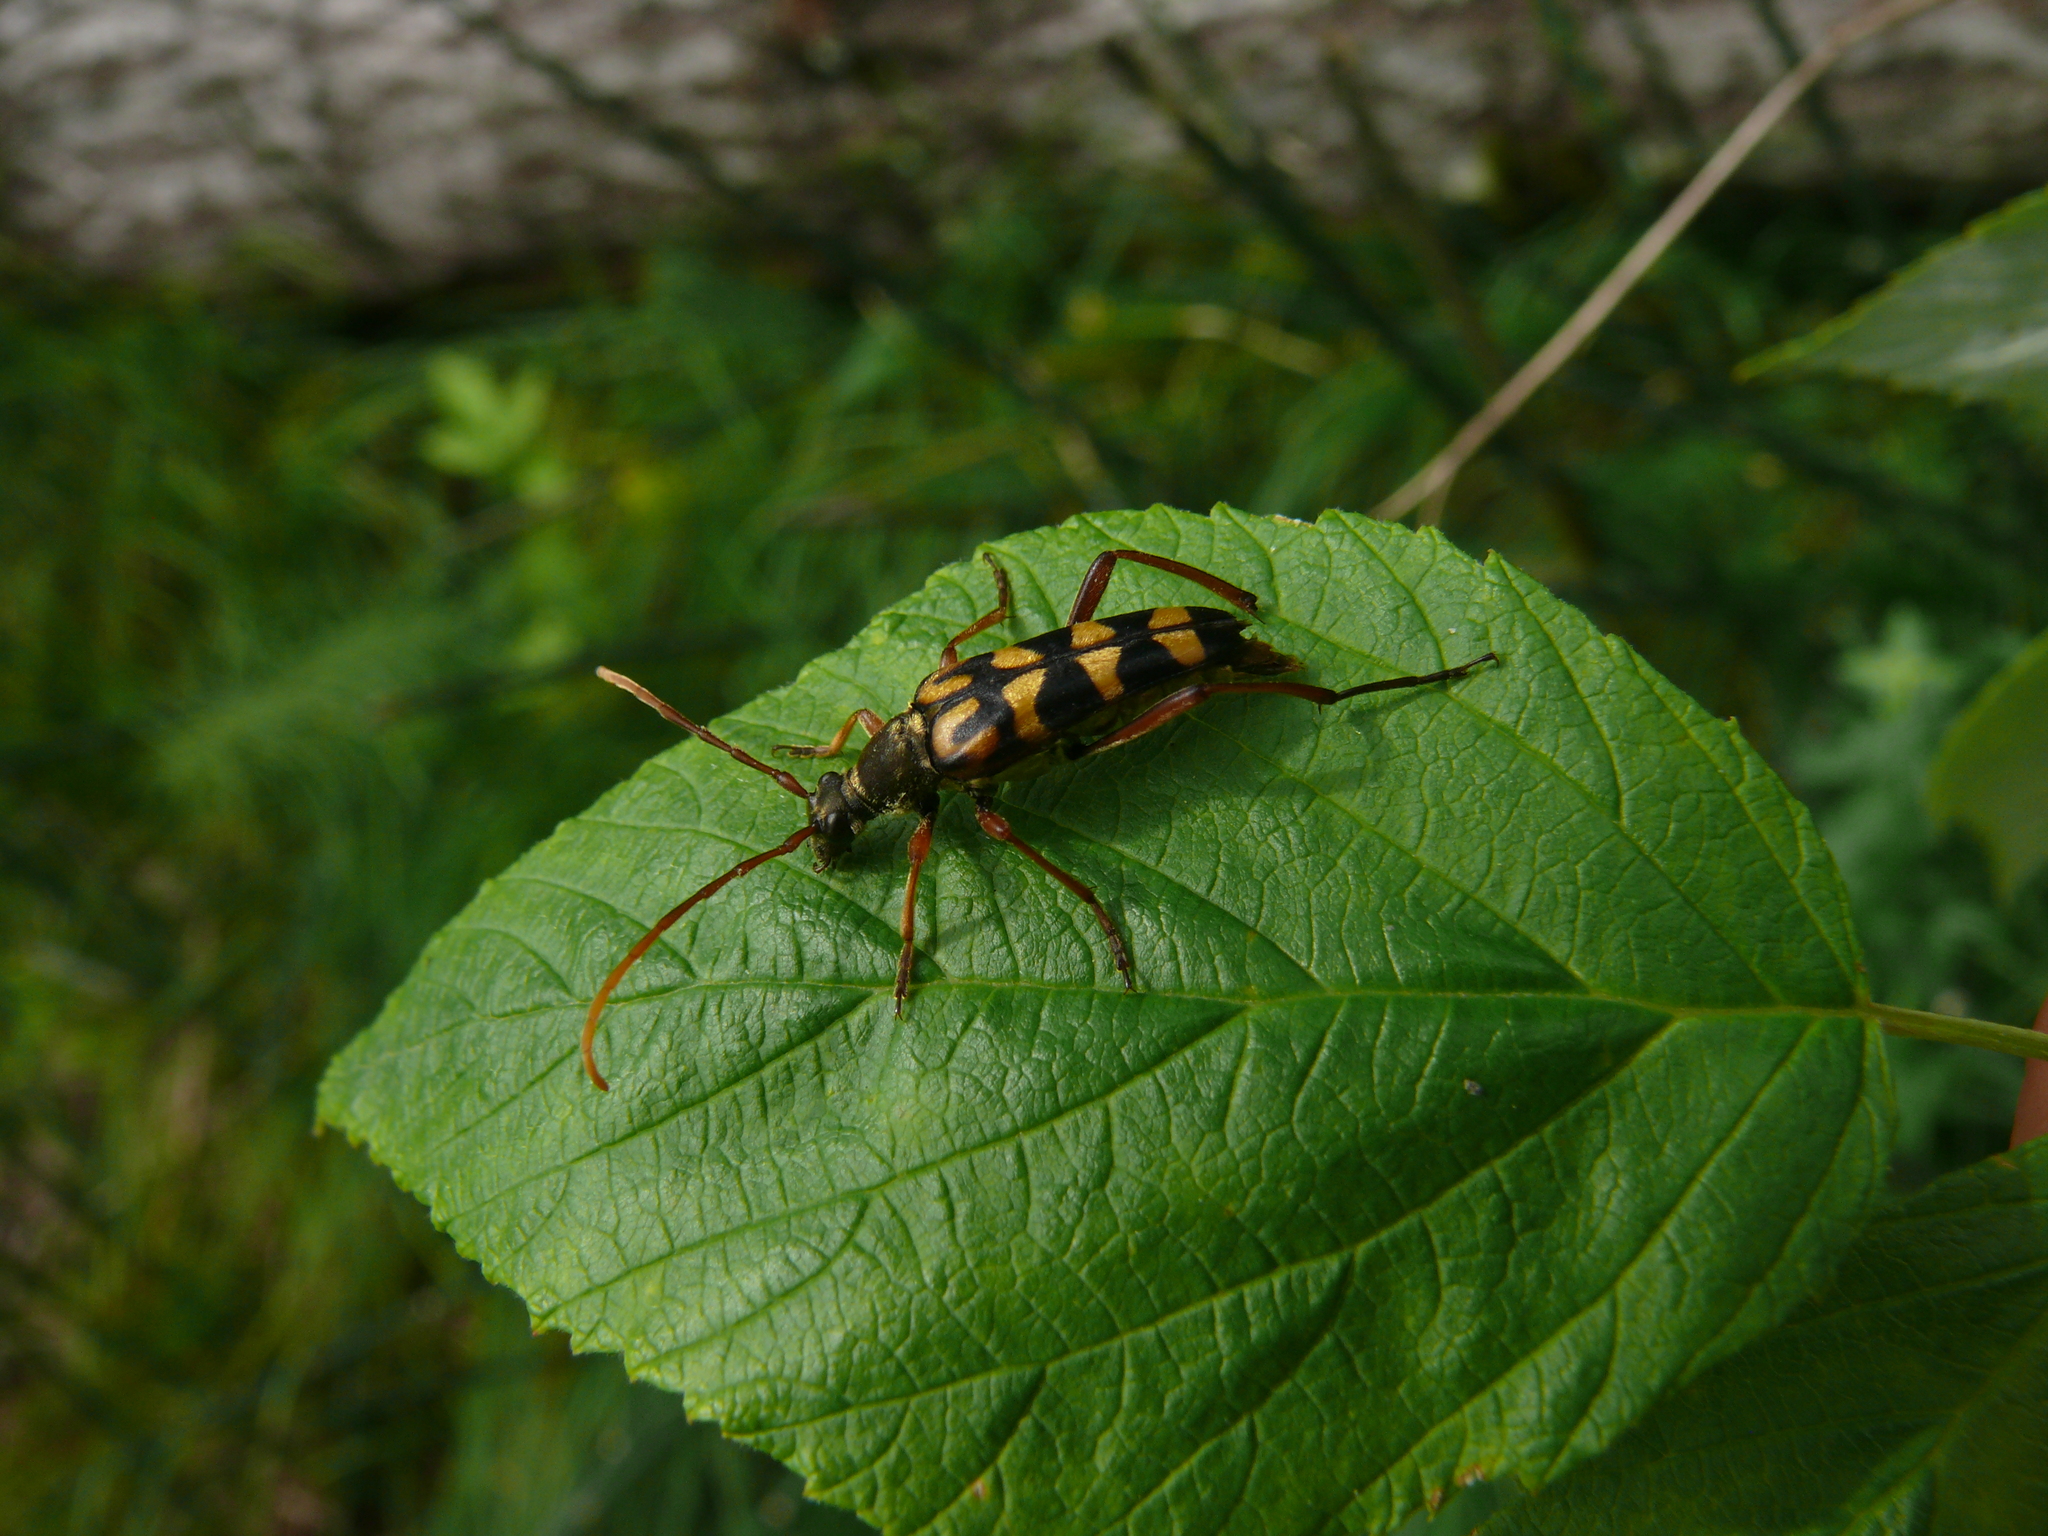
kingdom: Animalia
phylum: Arthropoda
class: Insecta
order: Coleoptera
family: Cerambycidae
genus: Leptura
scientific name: Leptura annularis
